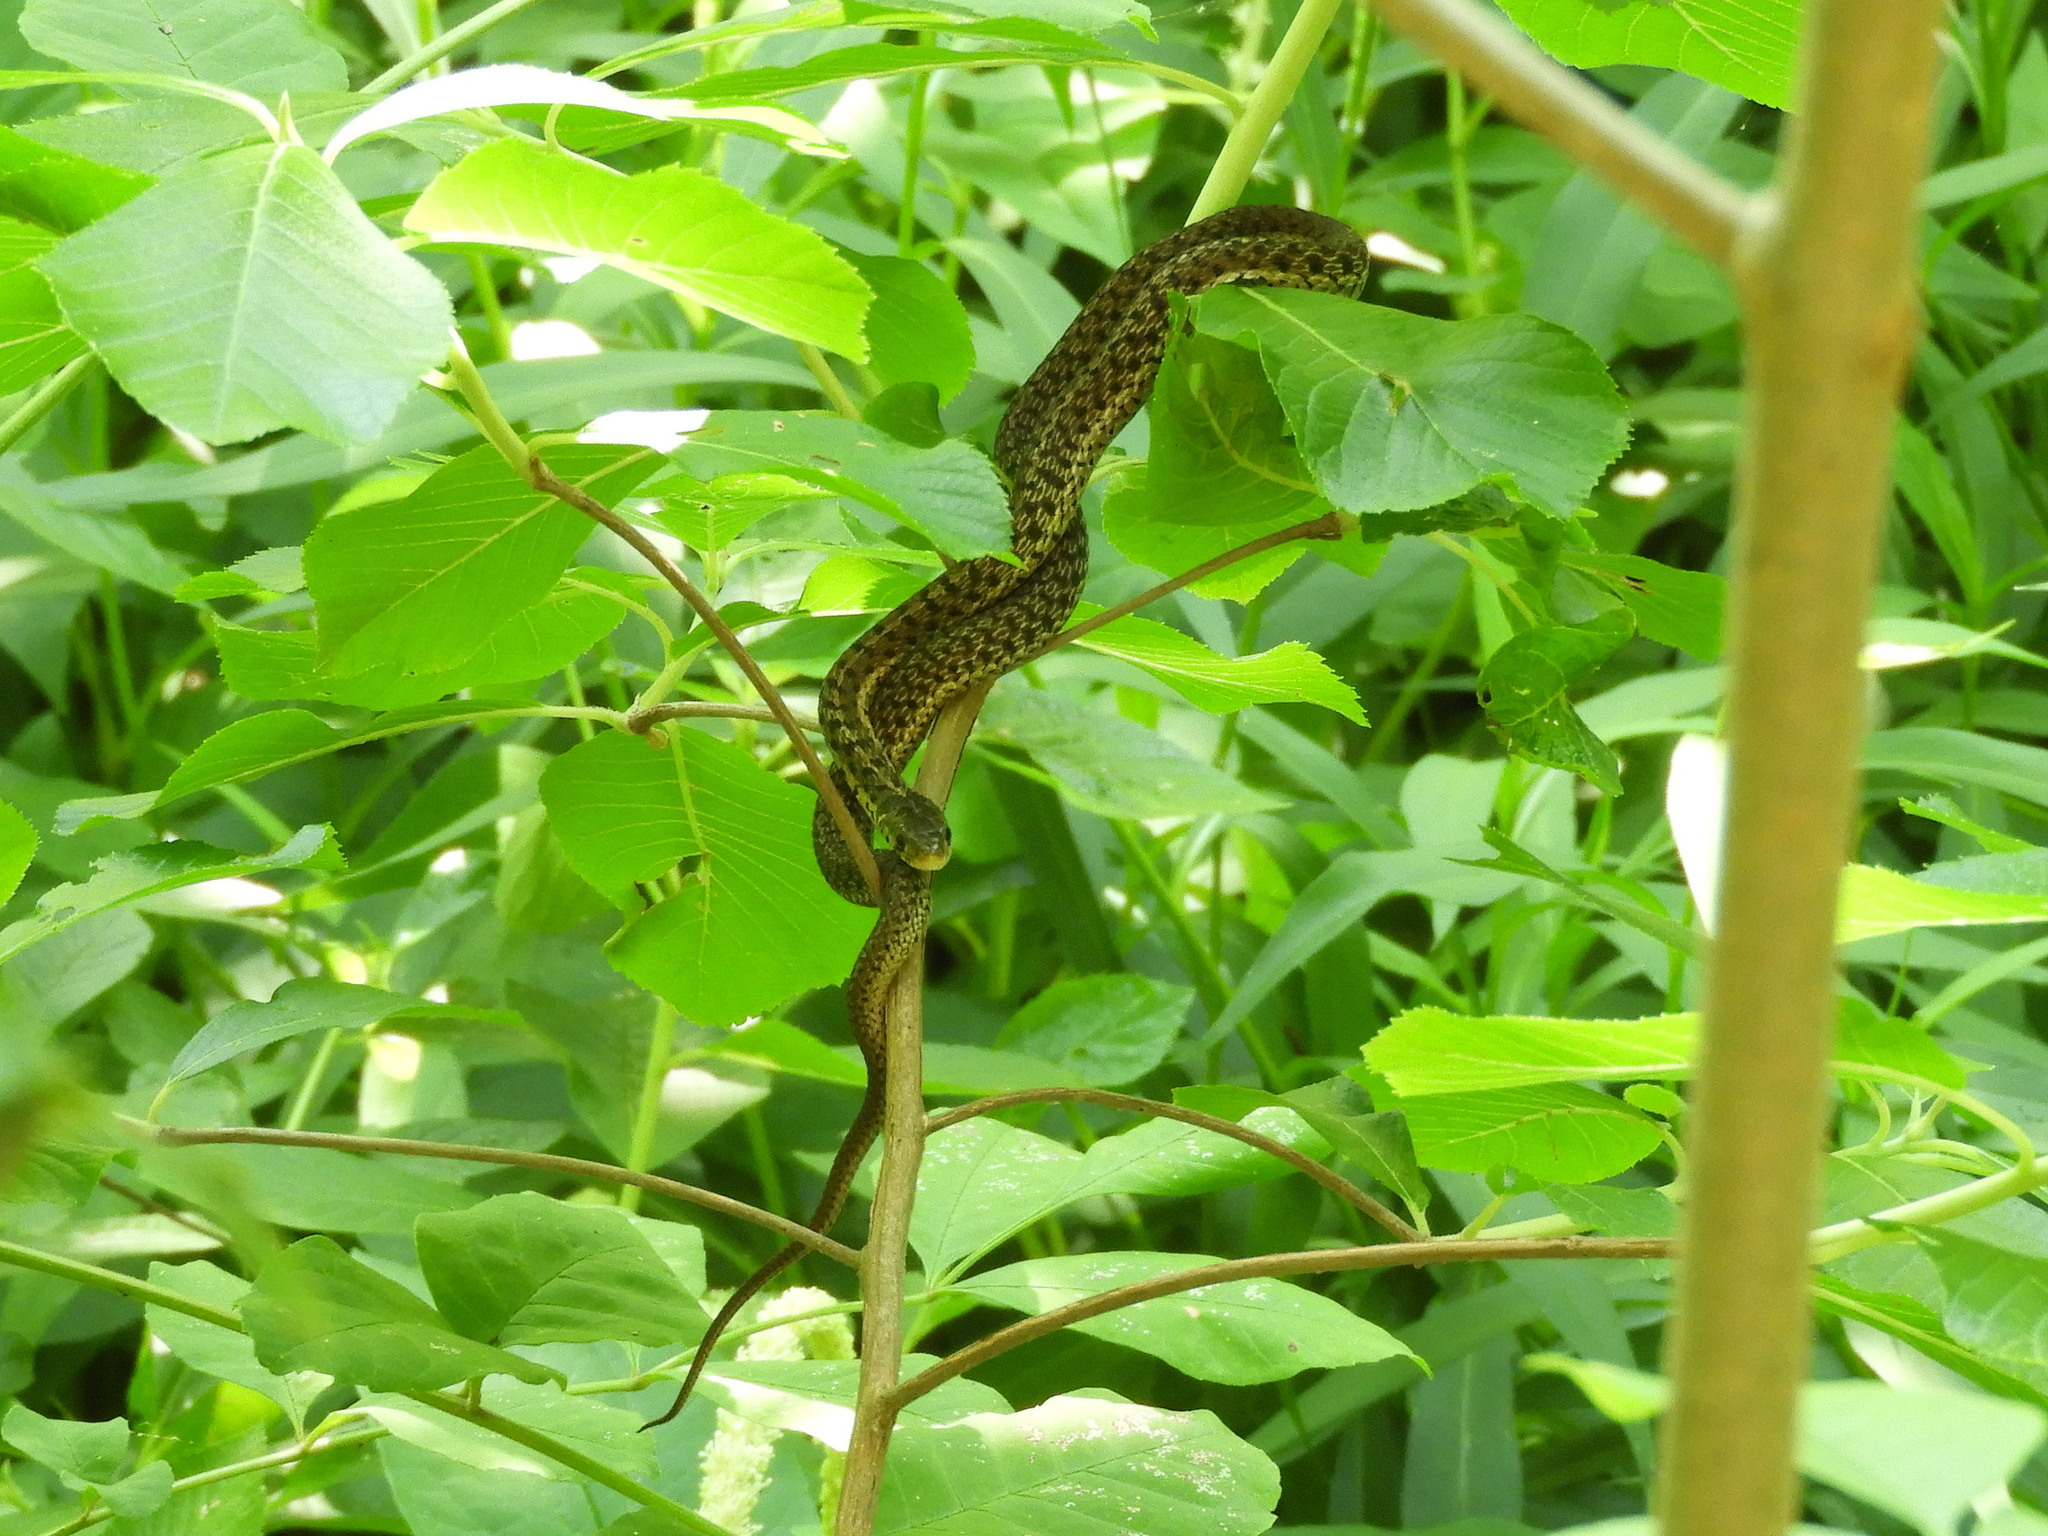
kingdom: Animalia
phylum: Chordata
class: Squamata
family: Colubridae
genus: Thamnophis
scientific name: Thamnophis sirtalis
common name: Common garter snake
